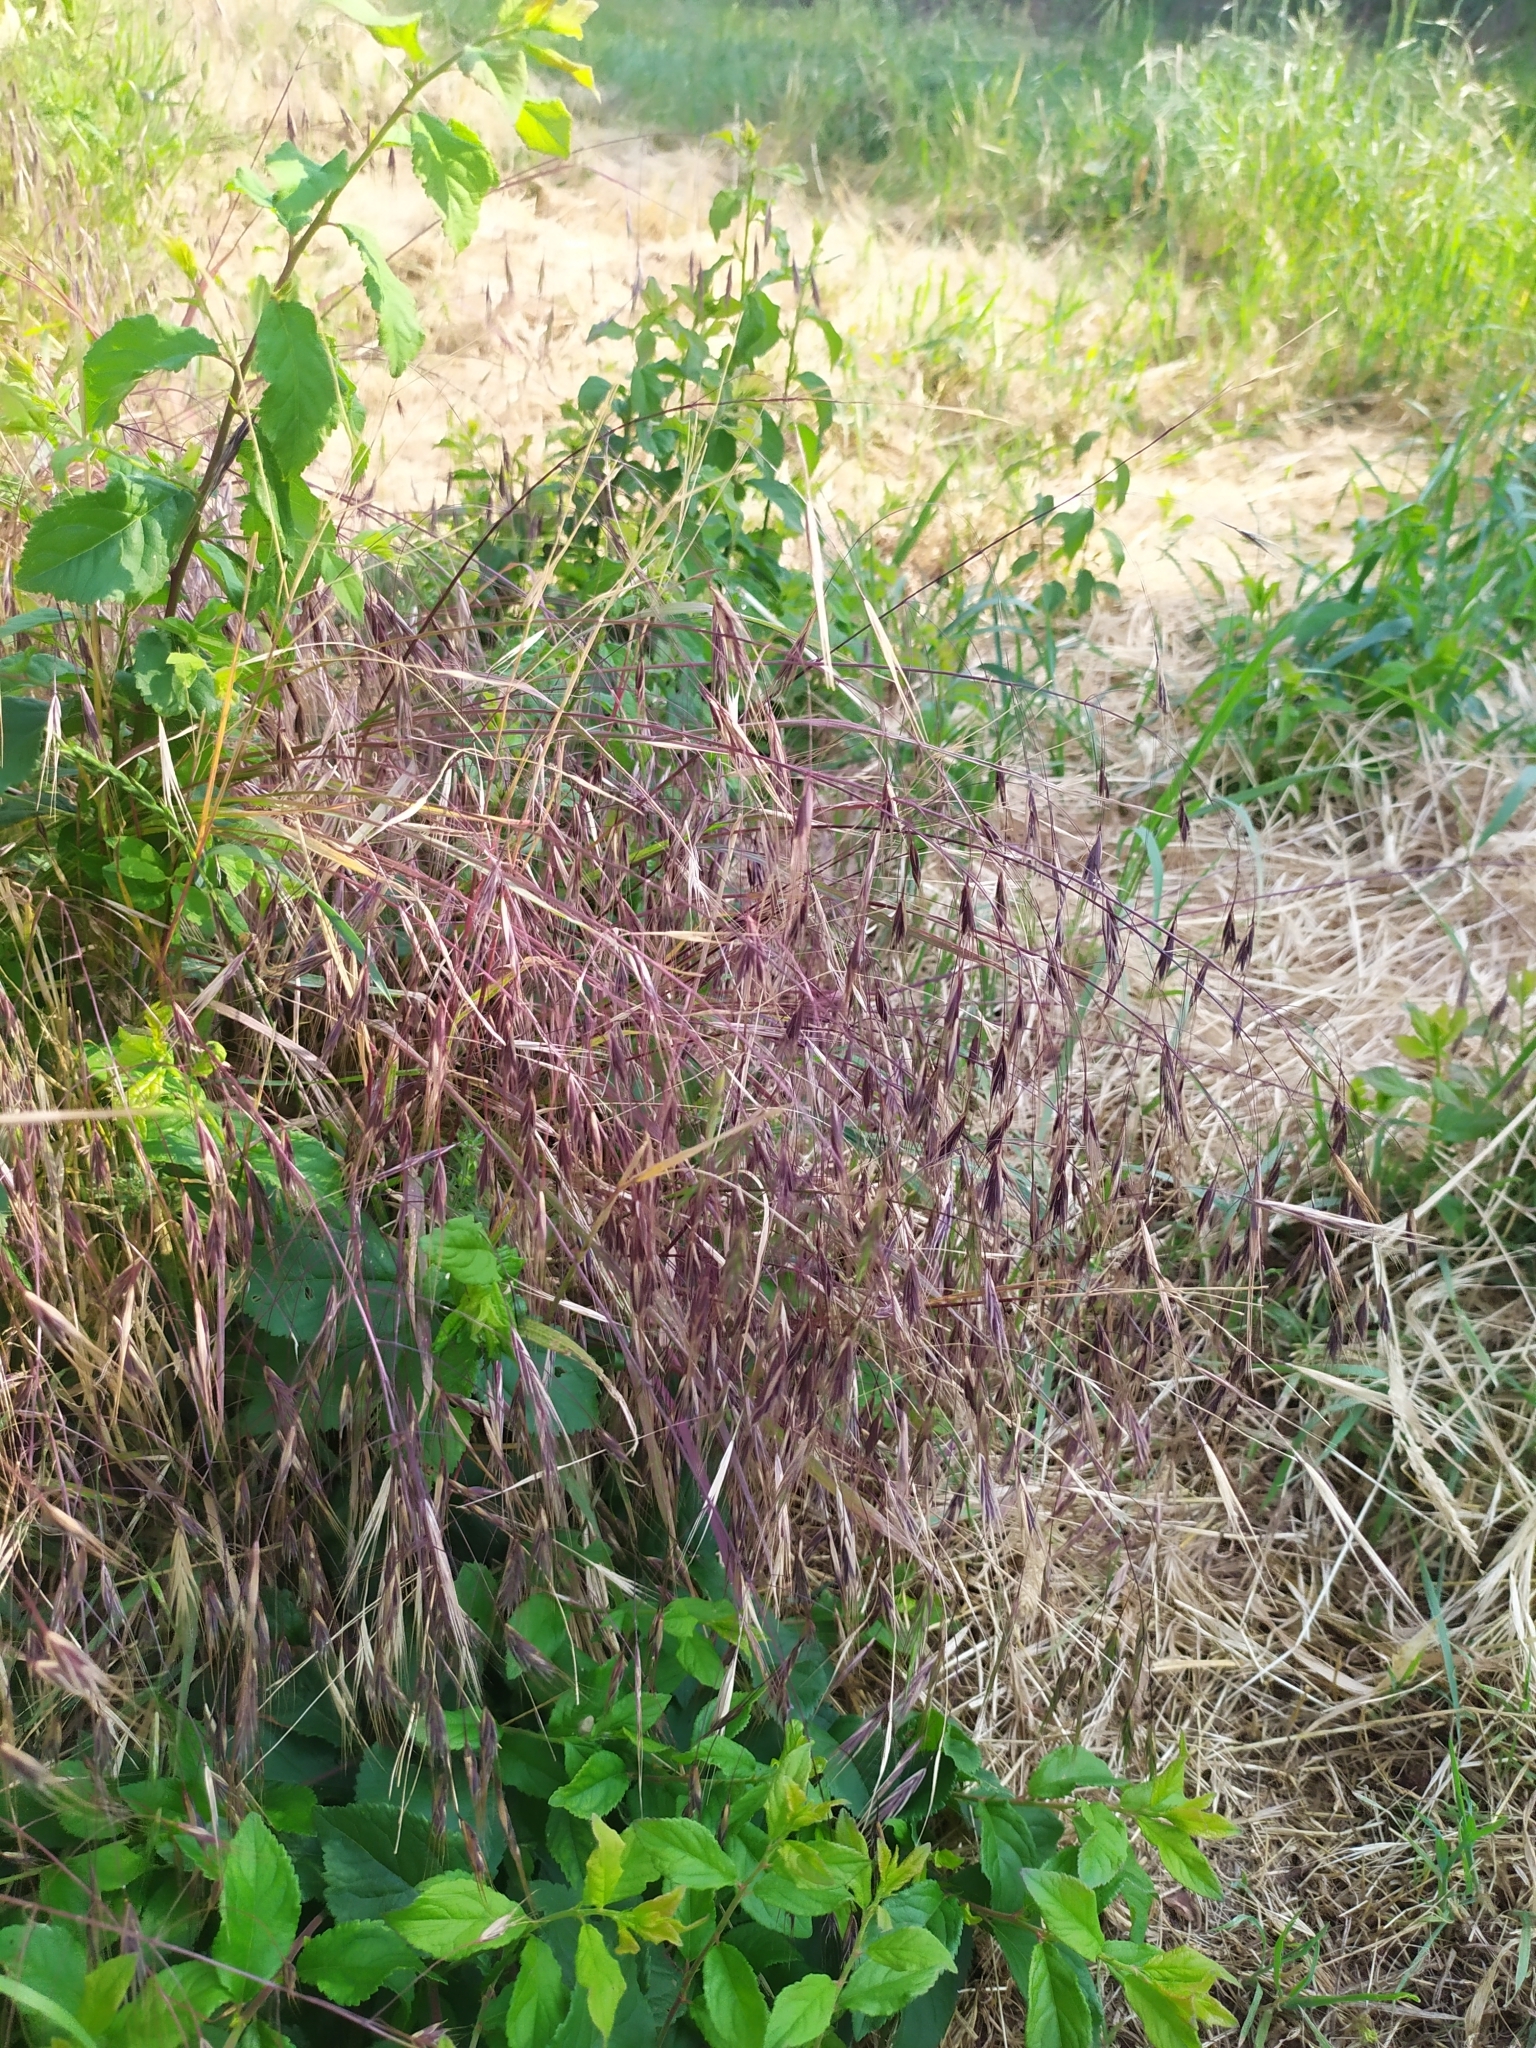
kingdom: Plantae
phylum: Tracheophyta
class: Liliopsida
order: Poales
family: Poaceae
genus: Bromus
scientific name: Bromus sterilis
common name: Poverty brome
